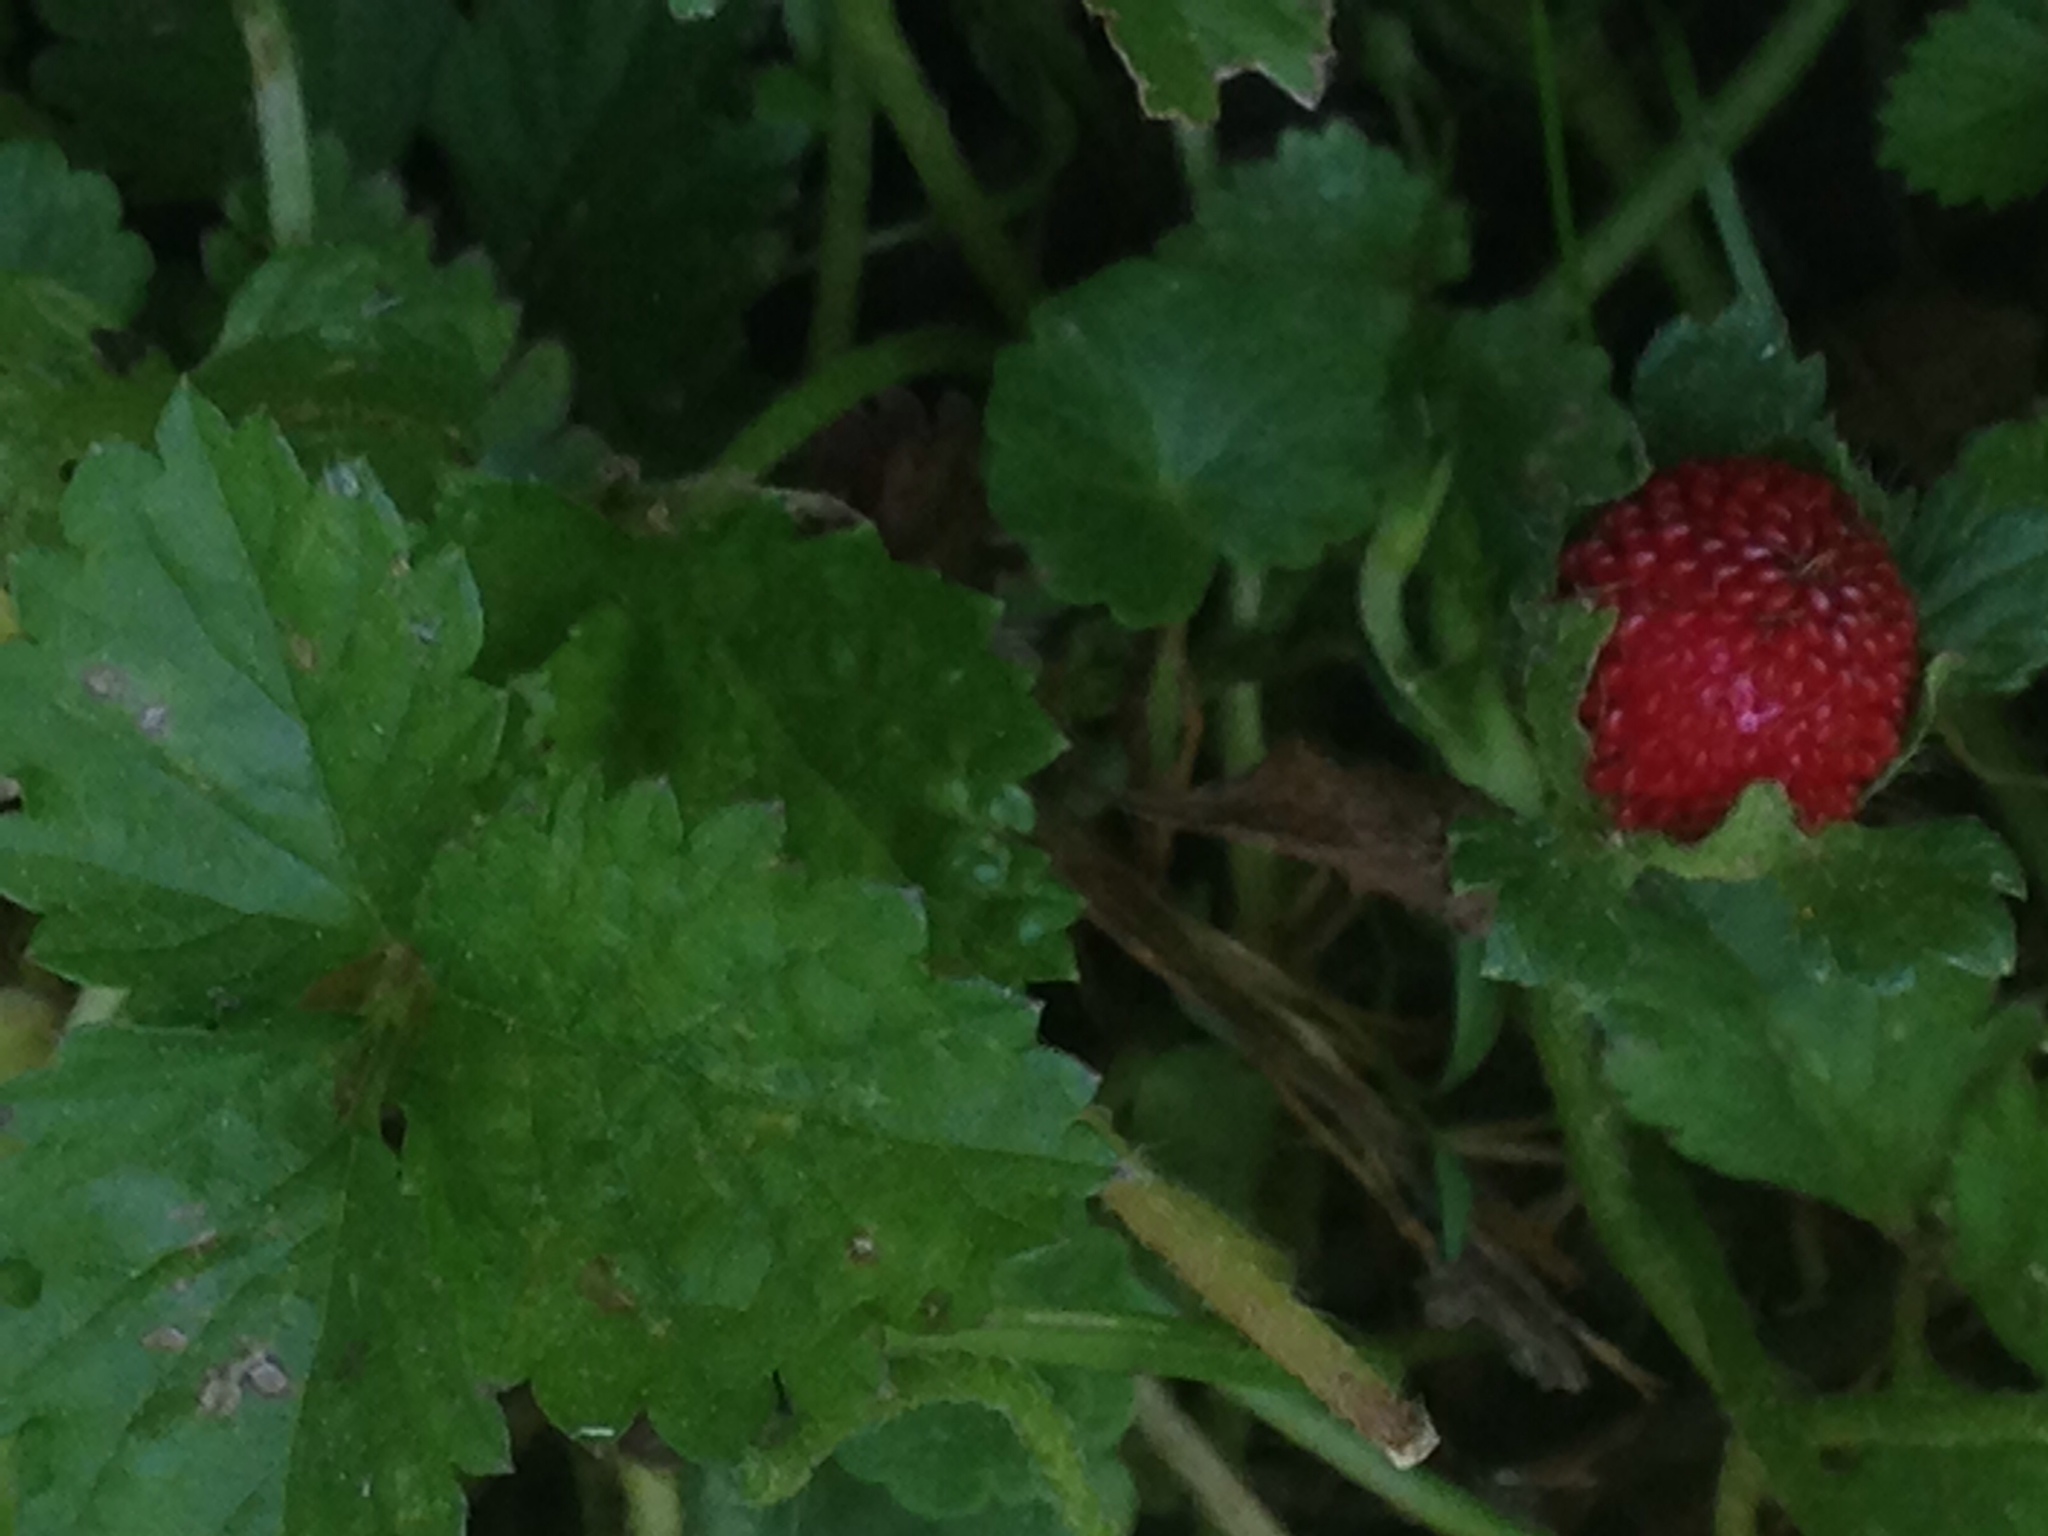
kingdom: Plantae
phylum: Tracheophyta
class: Magnoliopsida
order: Rosales
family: Rosaceae
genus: Potentilla
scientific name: Potentilla indica
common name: Yellow-flowered strawberry
